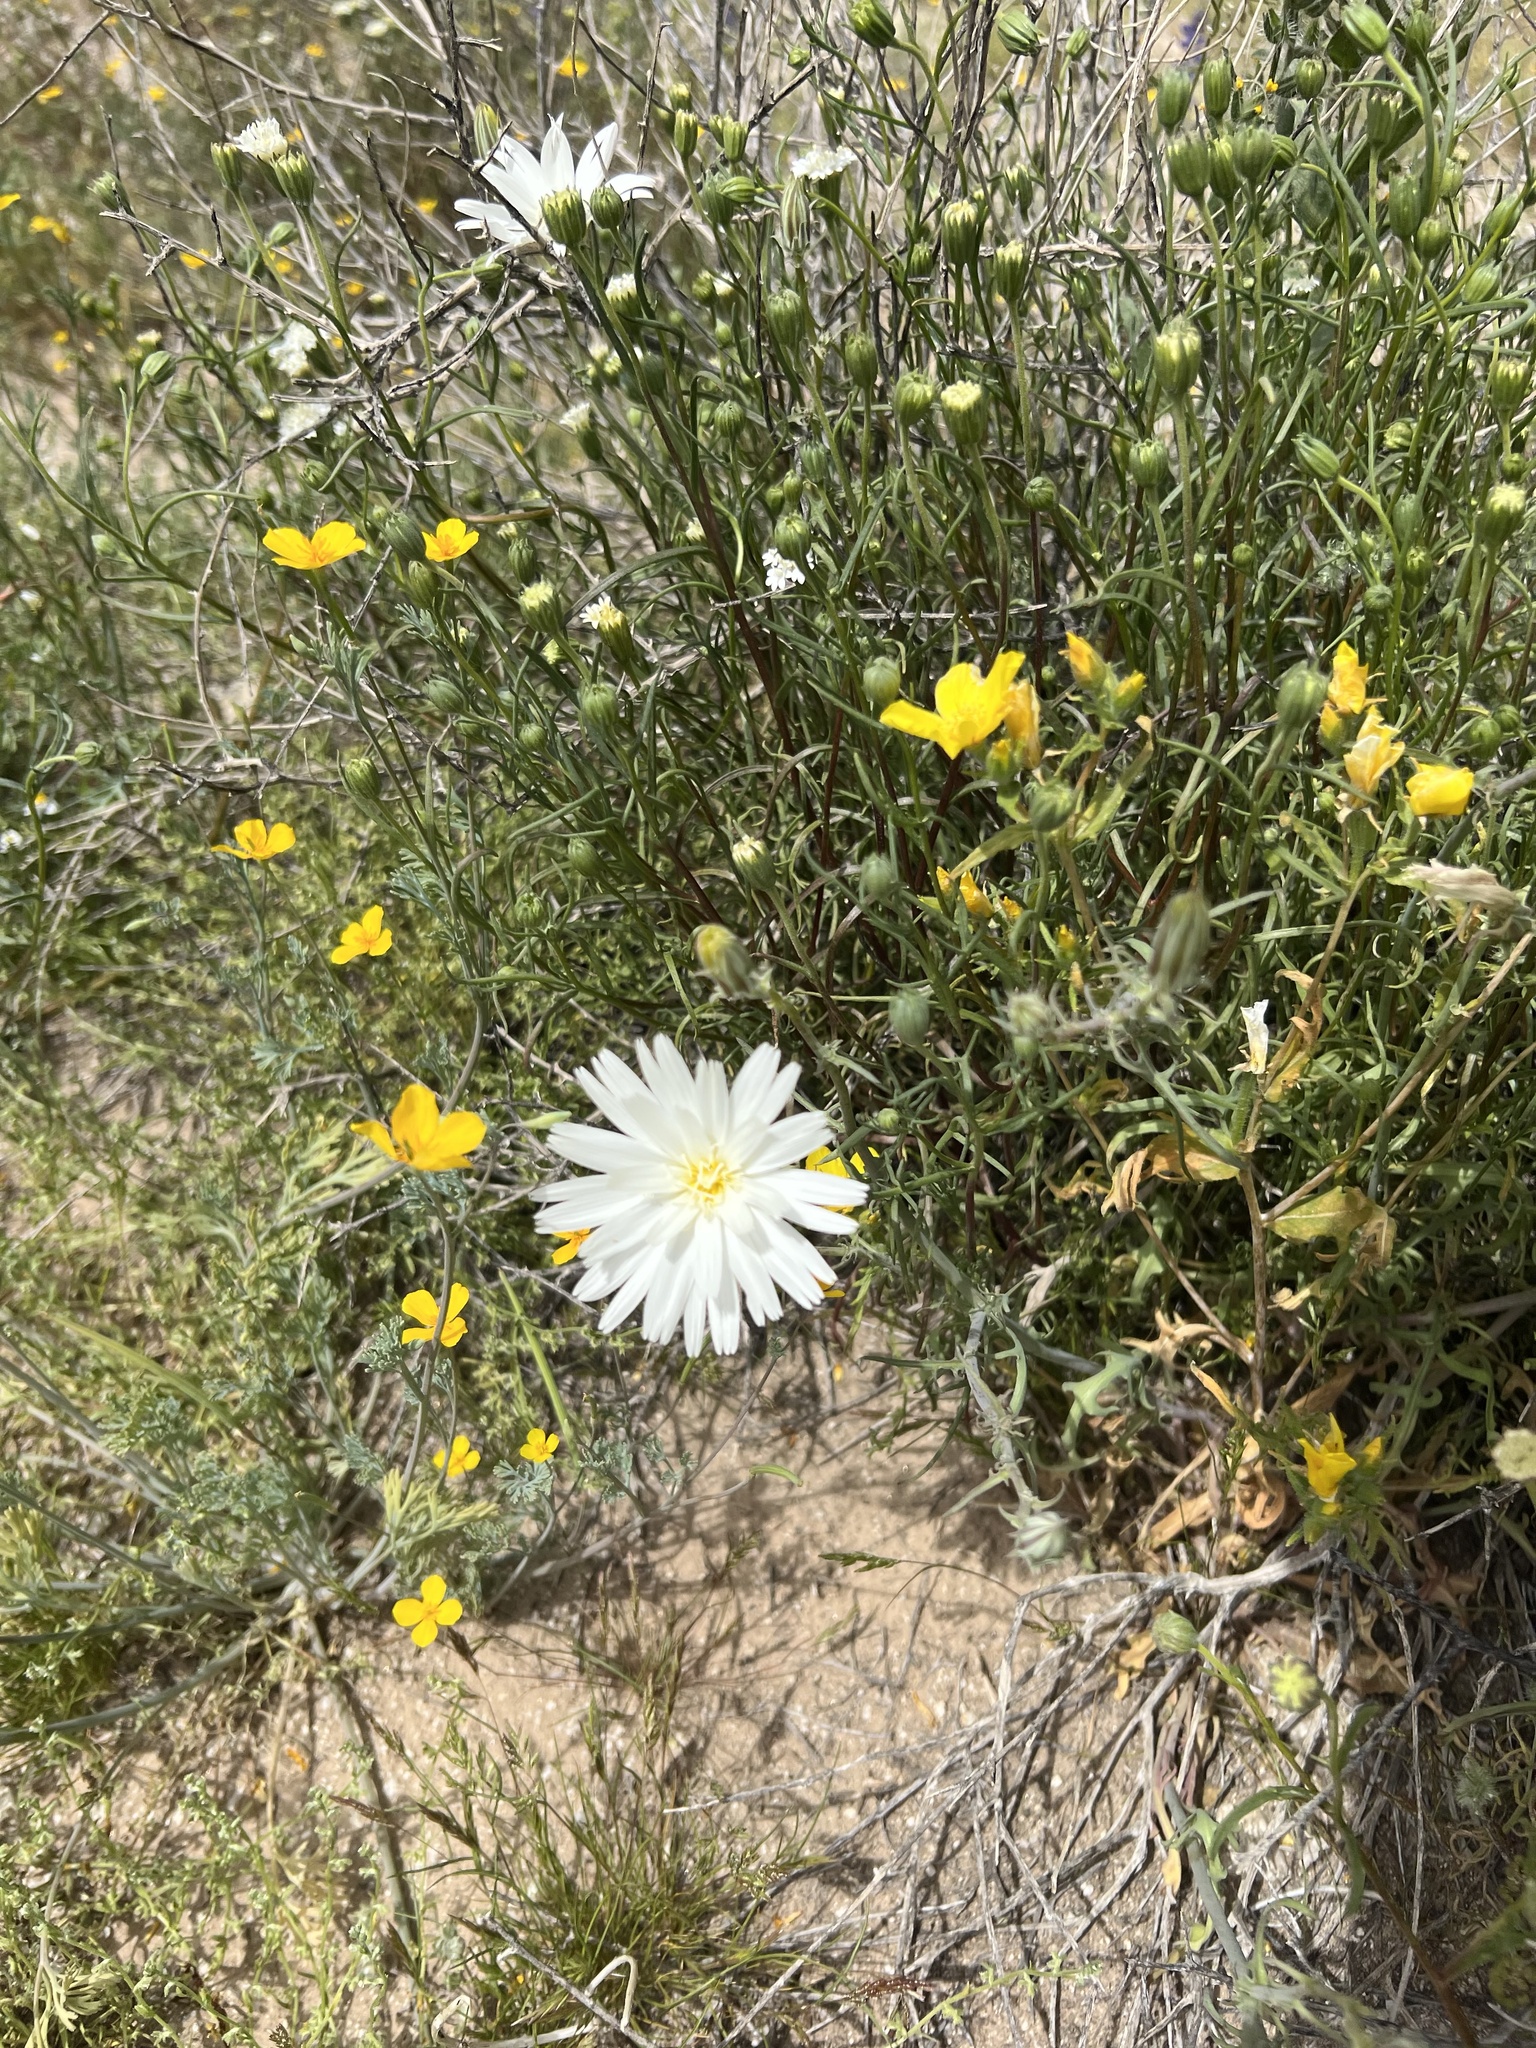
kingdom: Plantae
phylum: Tracheophyta
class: Magnoliopsida
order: Asterales
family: Asteraceae
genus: Rafinesquia
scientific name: Rafinesquia neomexicana
